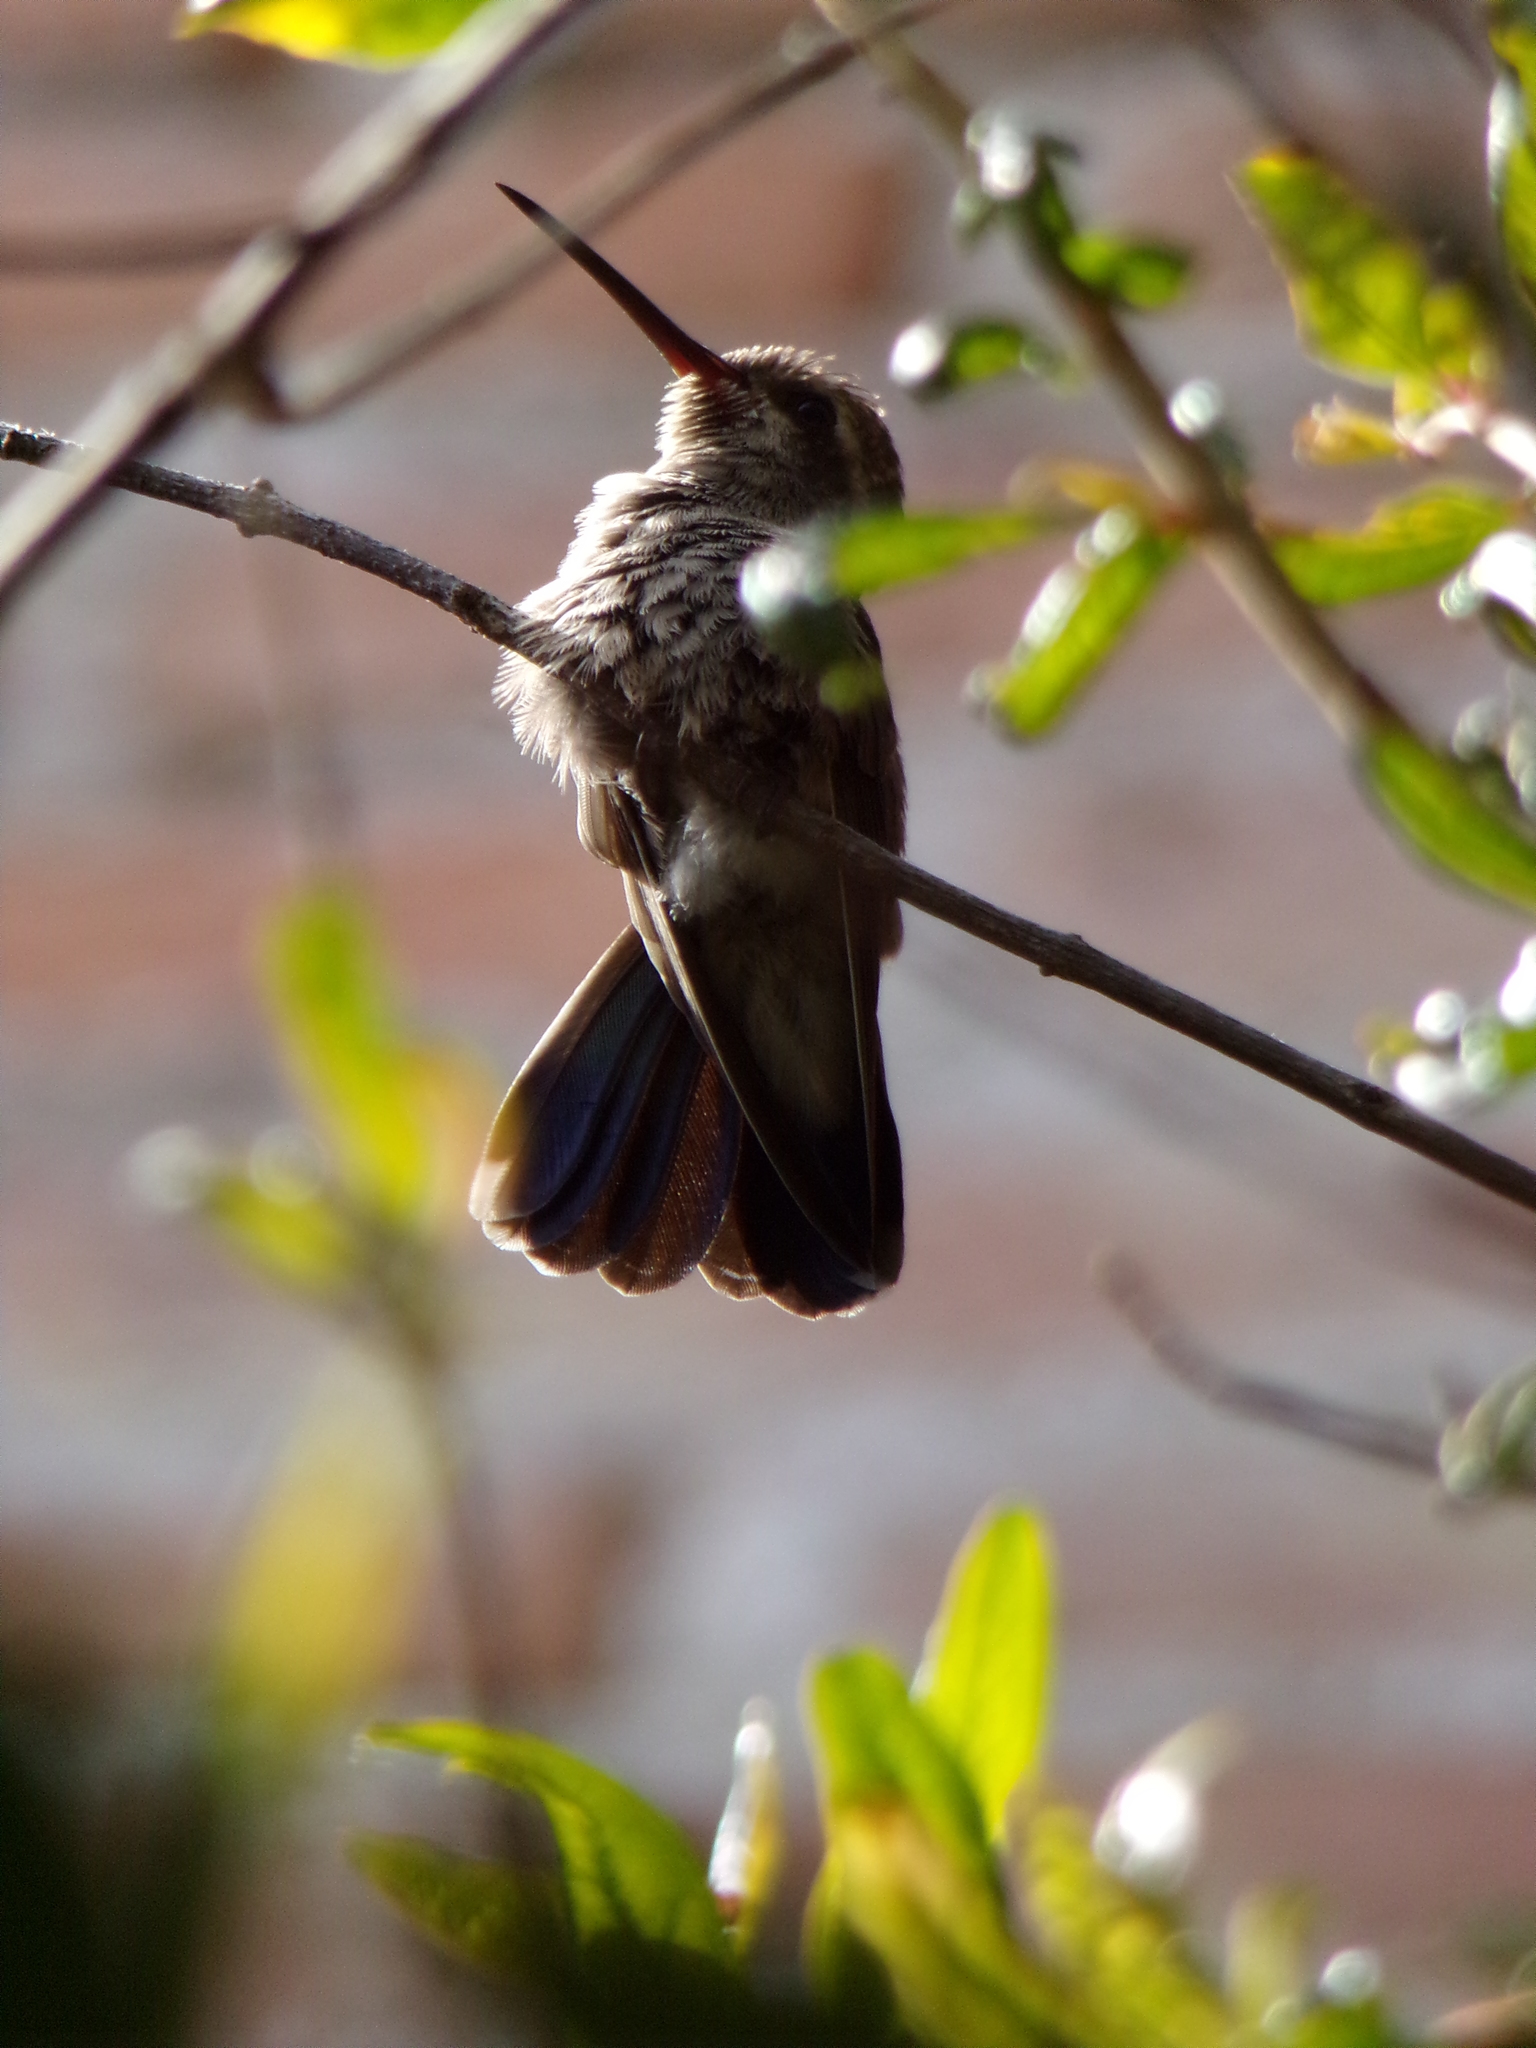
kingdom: Animalia
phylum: Chordata
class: Aves
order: Apodiformes
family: Trochilidae
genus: Cynanthus
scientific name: Cynanthus latirostris
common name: Broad-billed hummingbird
